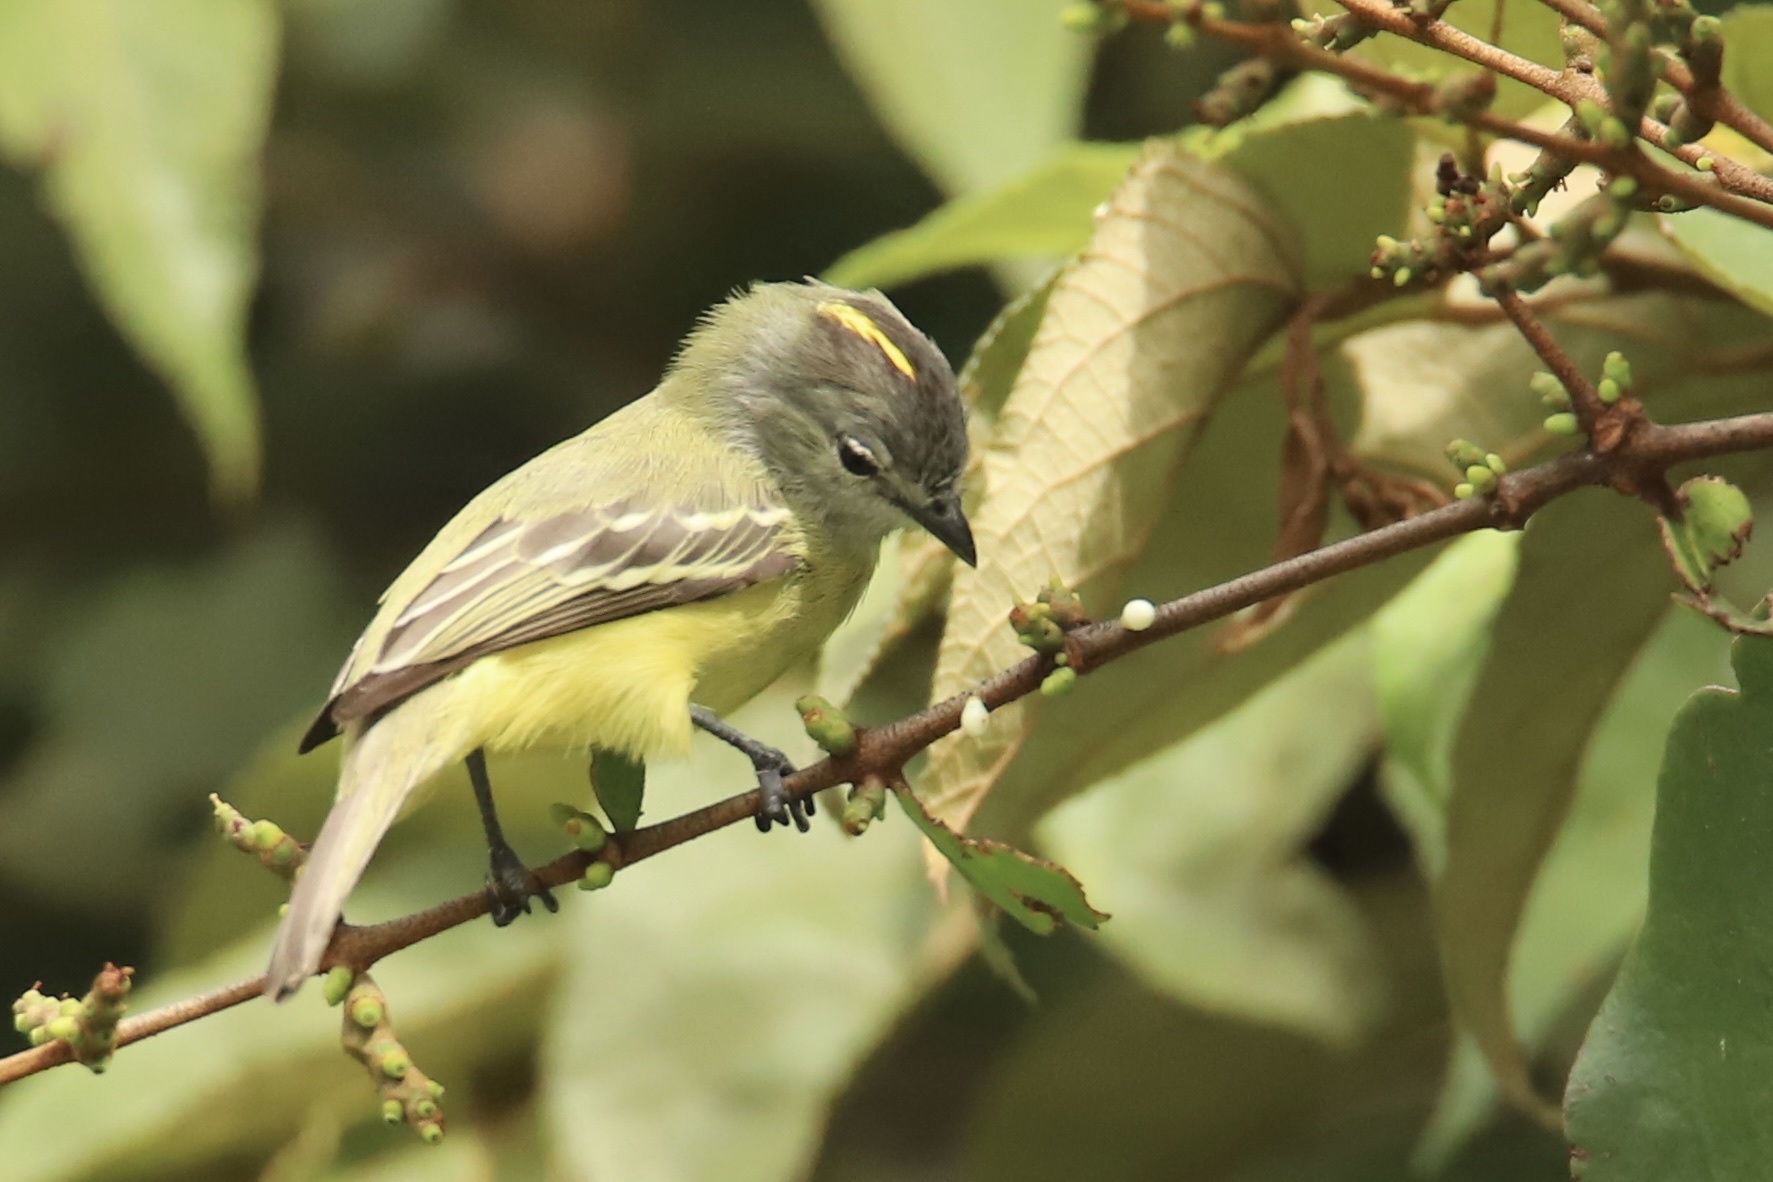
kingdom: Animalia
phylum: Chordata
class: Aves
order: Passeriformes
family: Tyrannidae
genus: Tyrannulus
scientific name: Tyrannulus elatus
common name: Yellow-crowned tyrannulet
